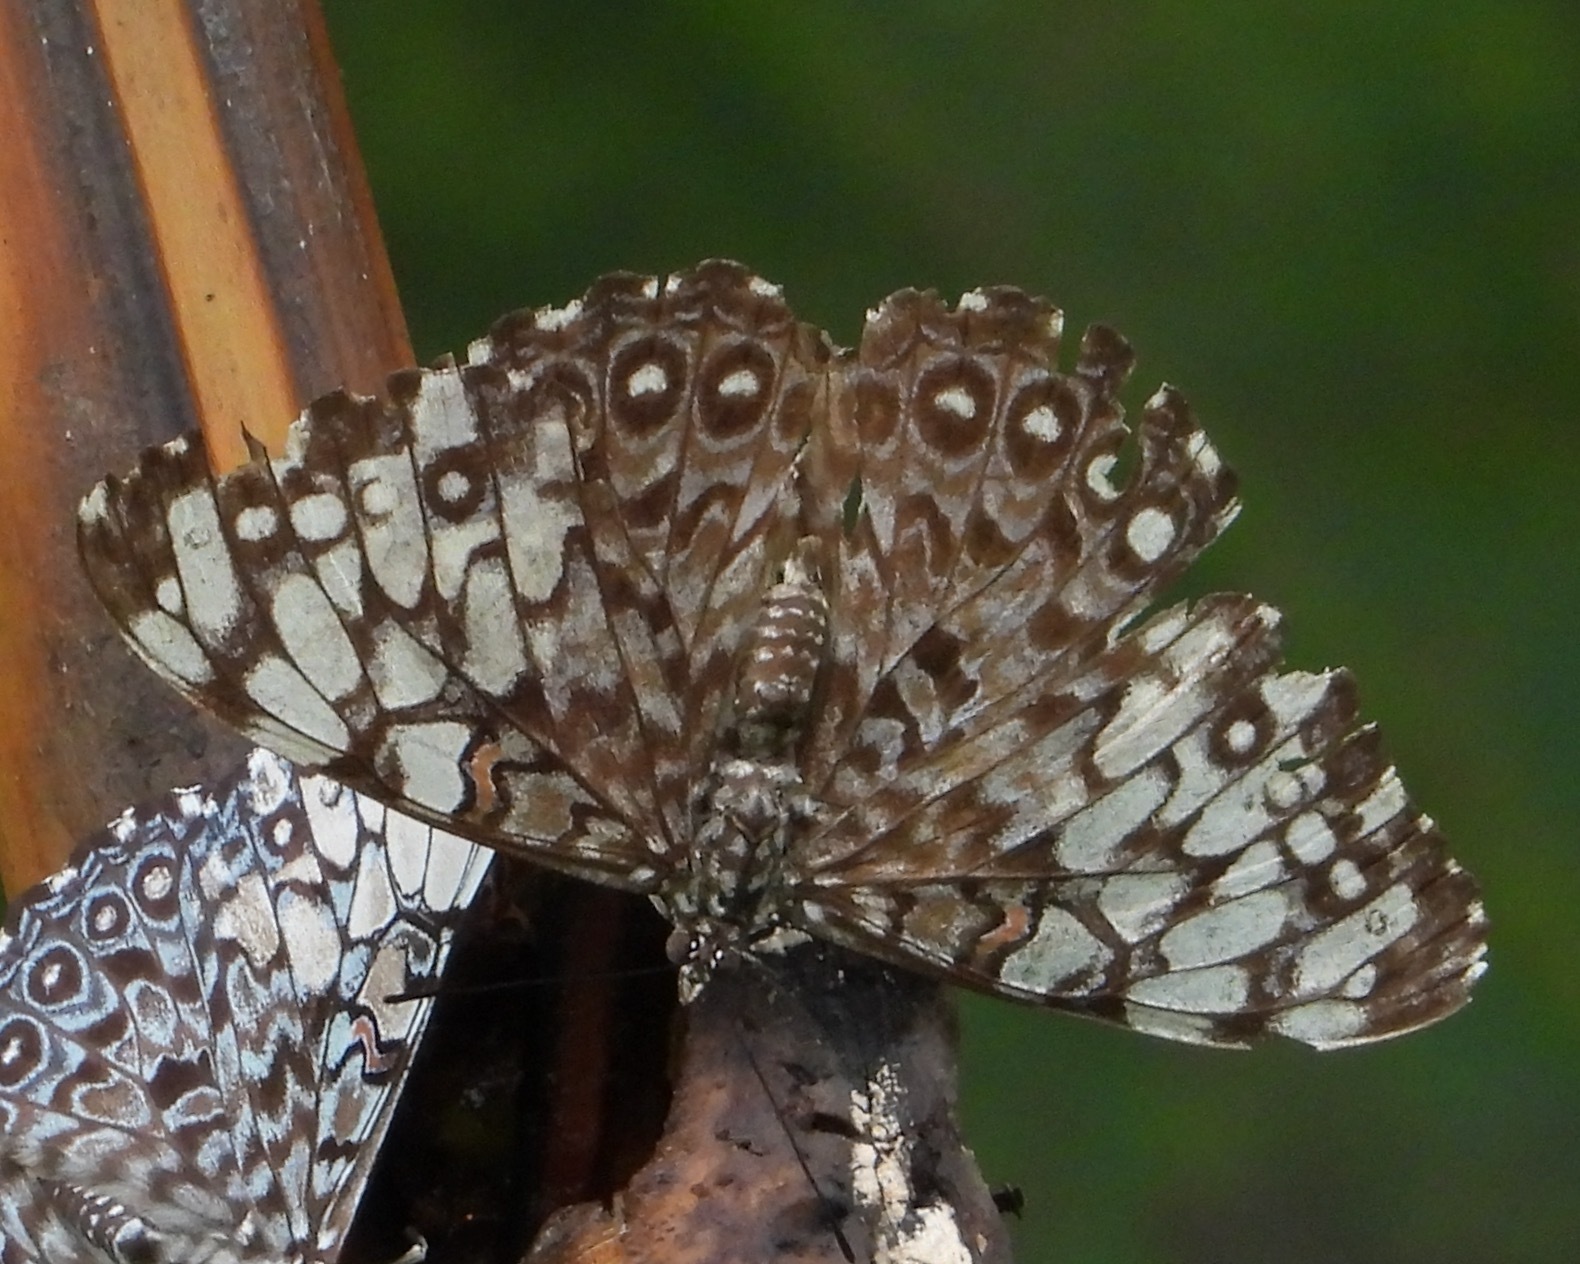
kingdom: Animalia
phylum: Arthropoda
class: Insecta
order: Lepidoptera
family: Nymphalidae
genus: Hamadryas
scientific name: Hamadryas feronia
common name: Variable cracker
